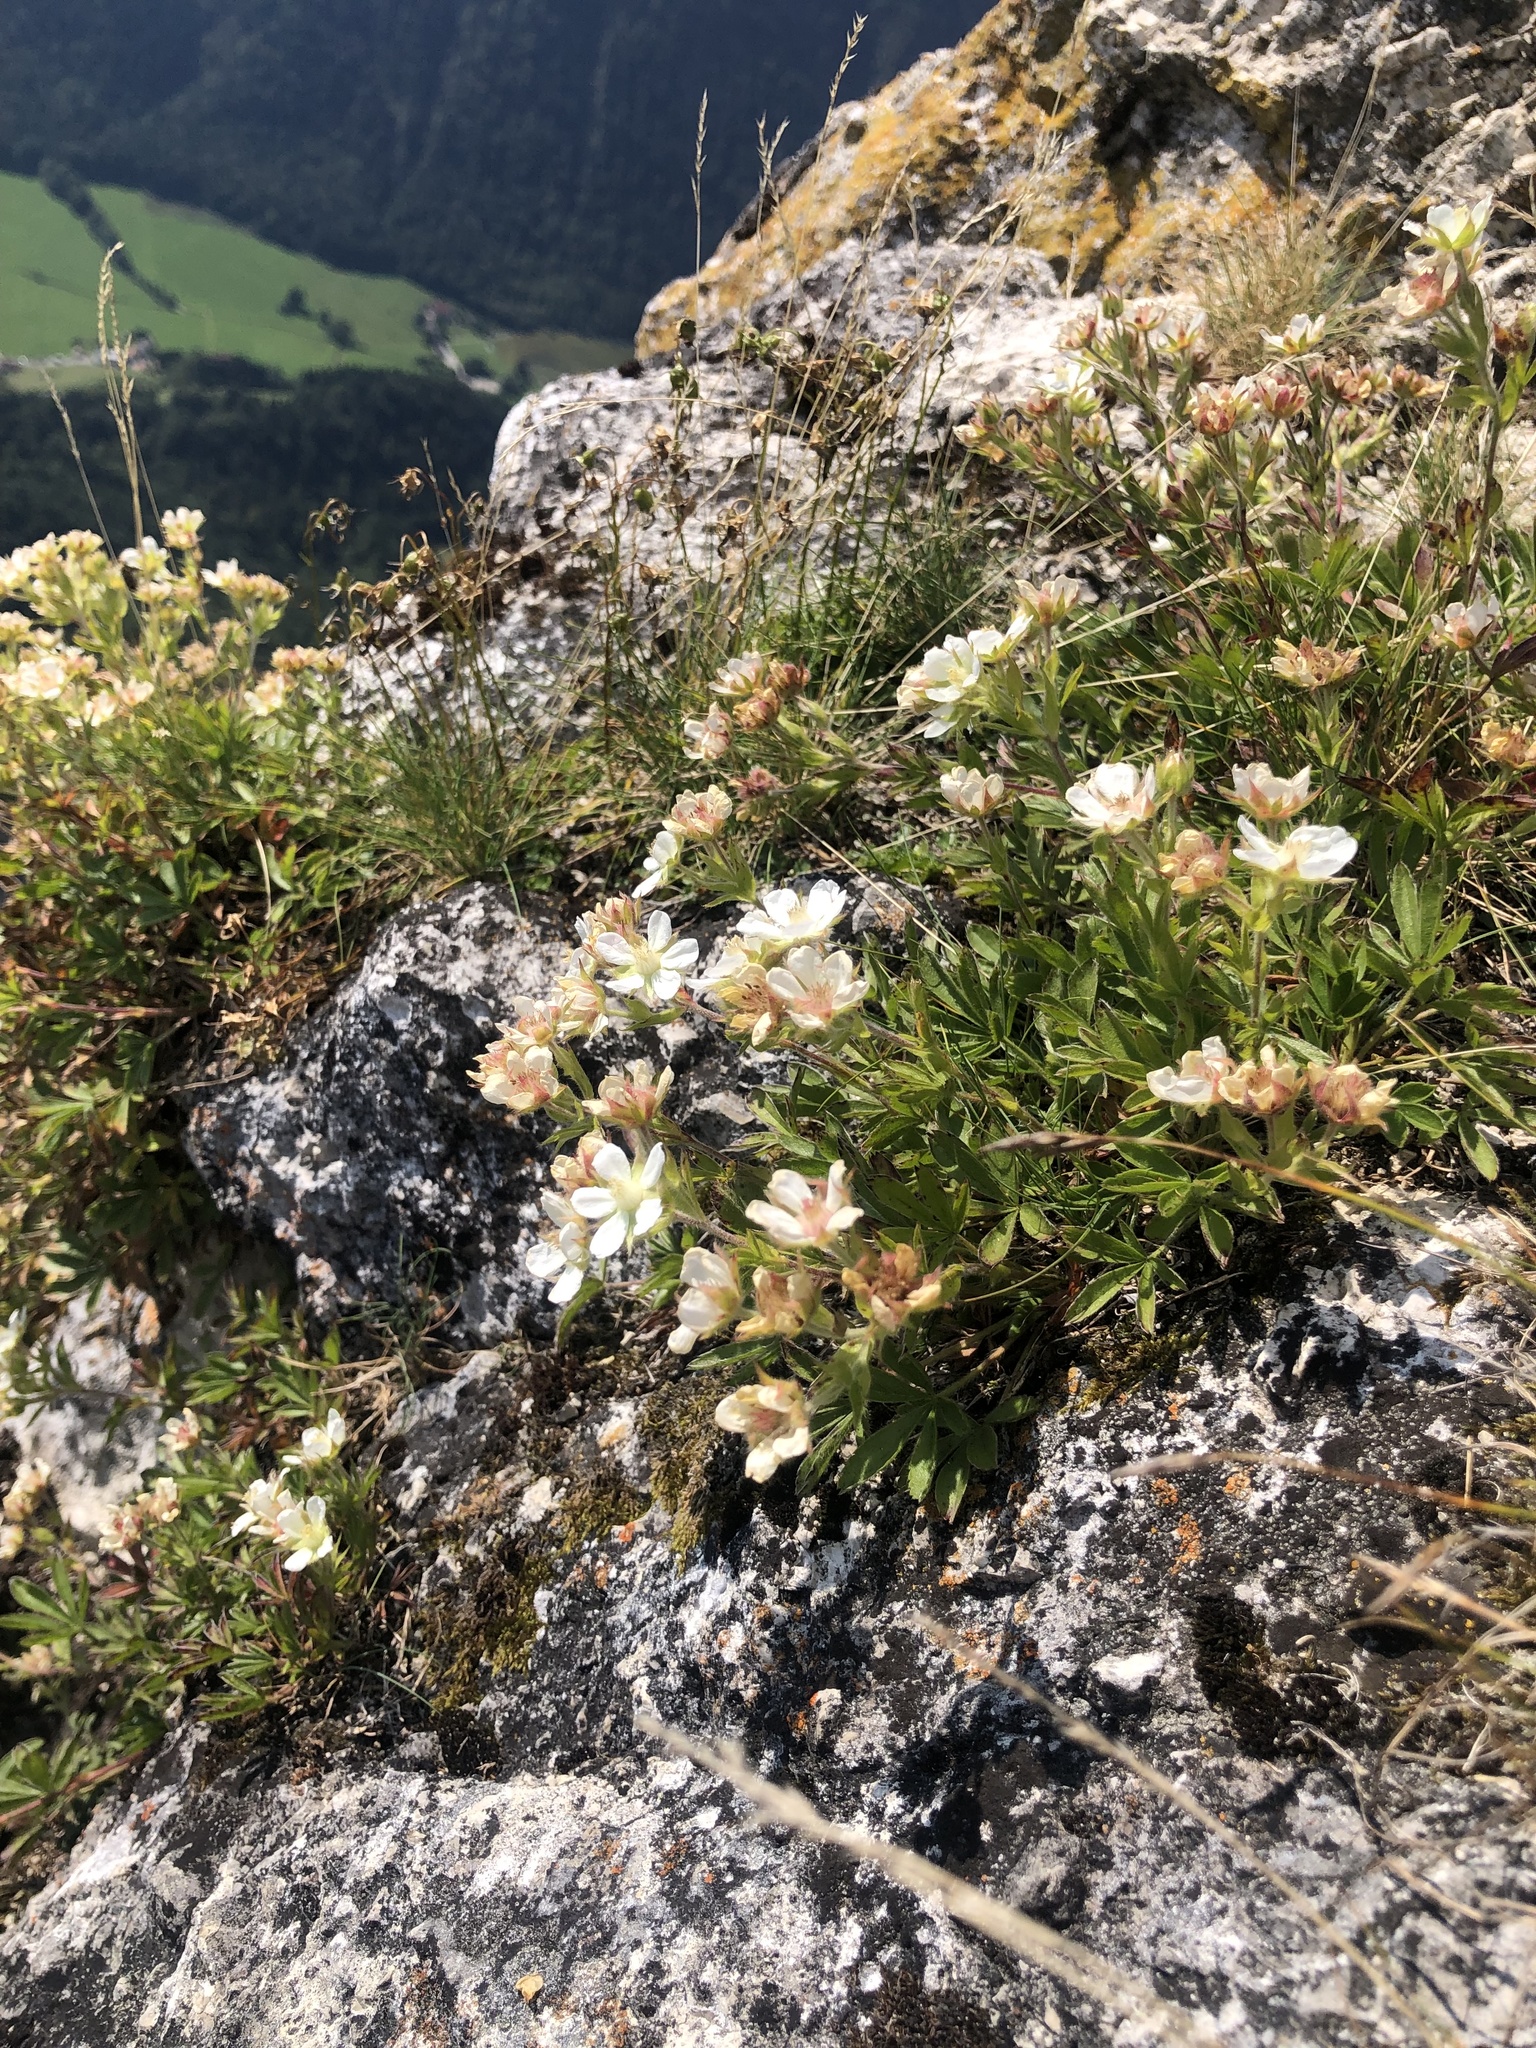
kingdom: Plantae
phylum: Tracheophyta
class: Magnoliopsida
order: Rosales
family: Rosaceae
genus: Potentilla
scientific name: Potentilla caulescens
